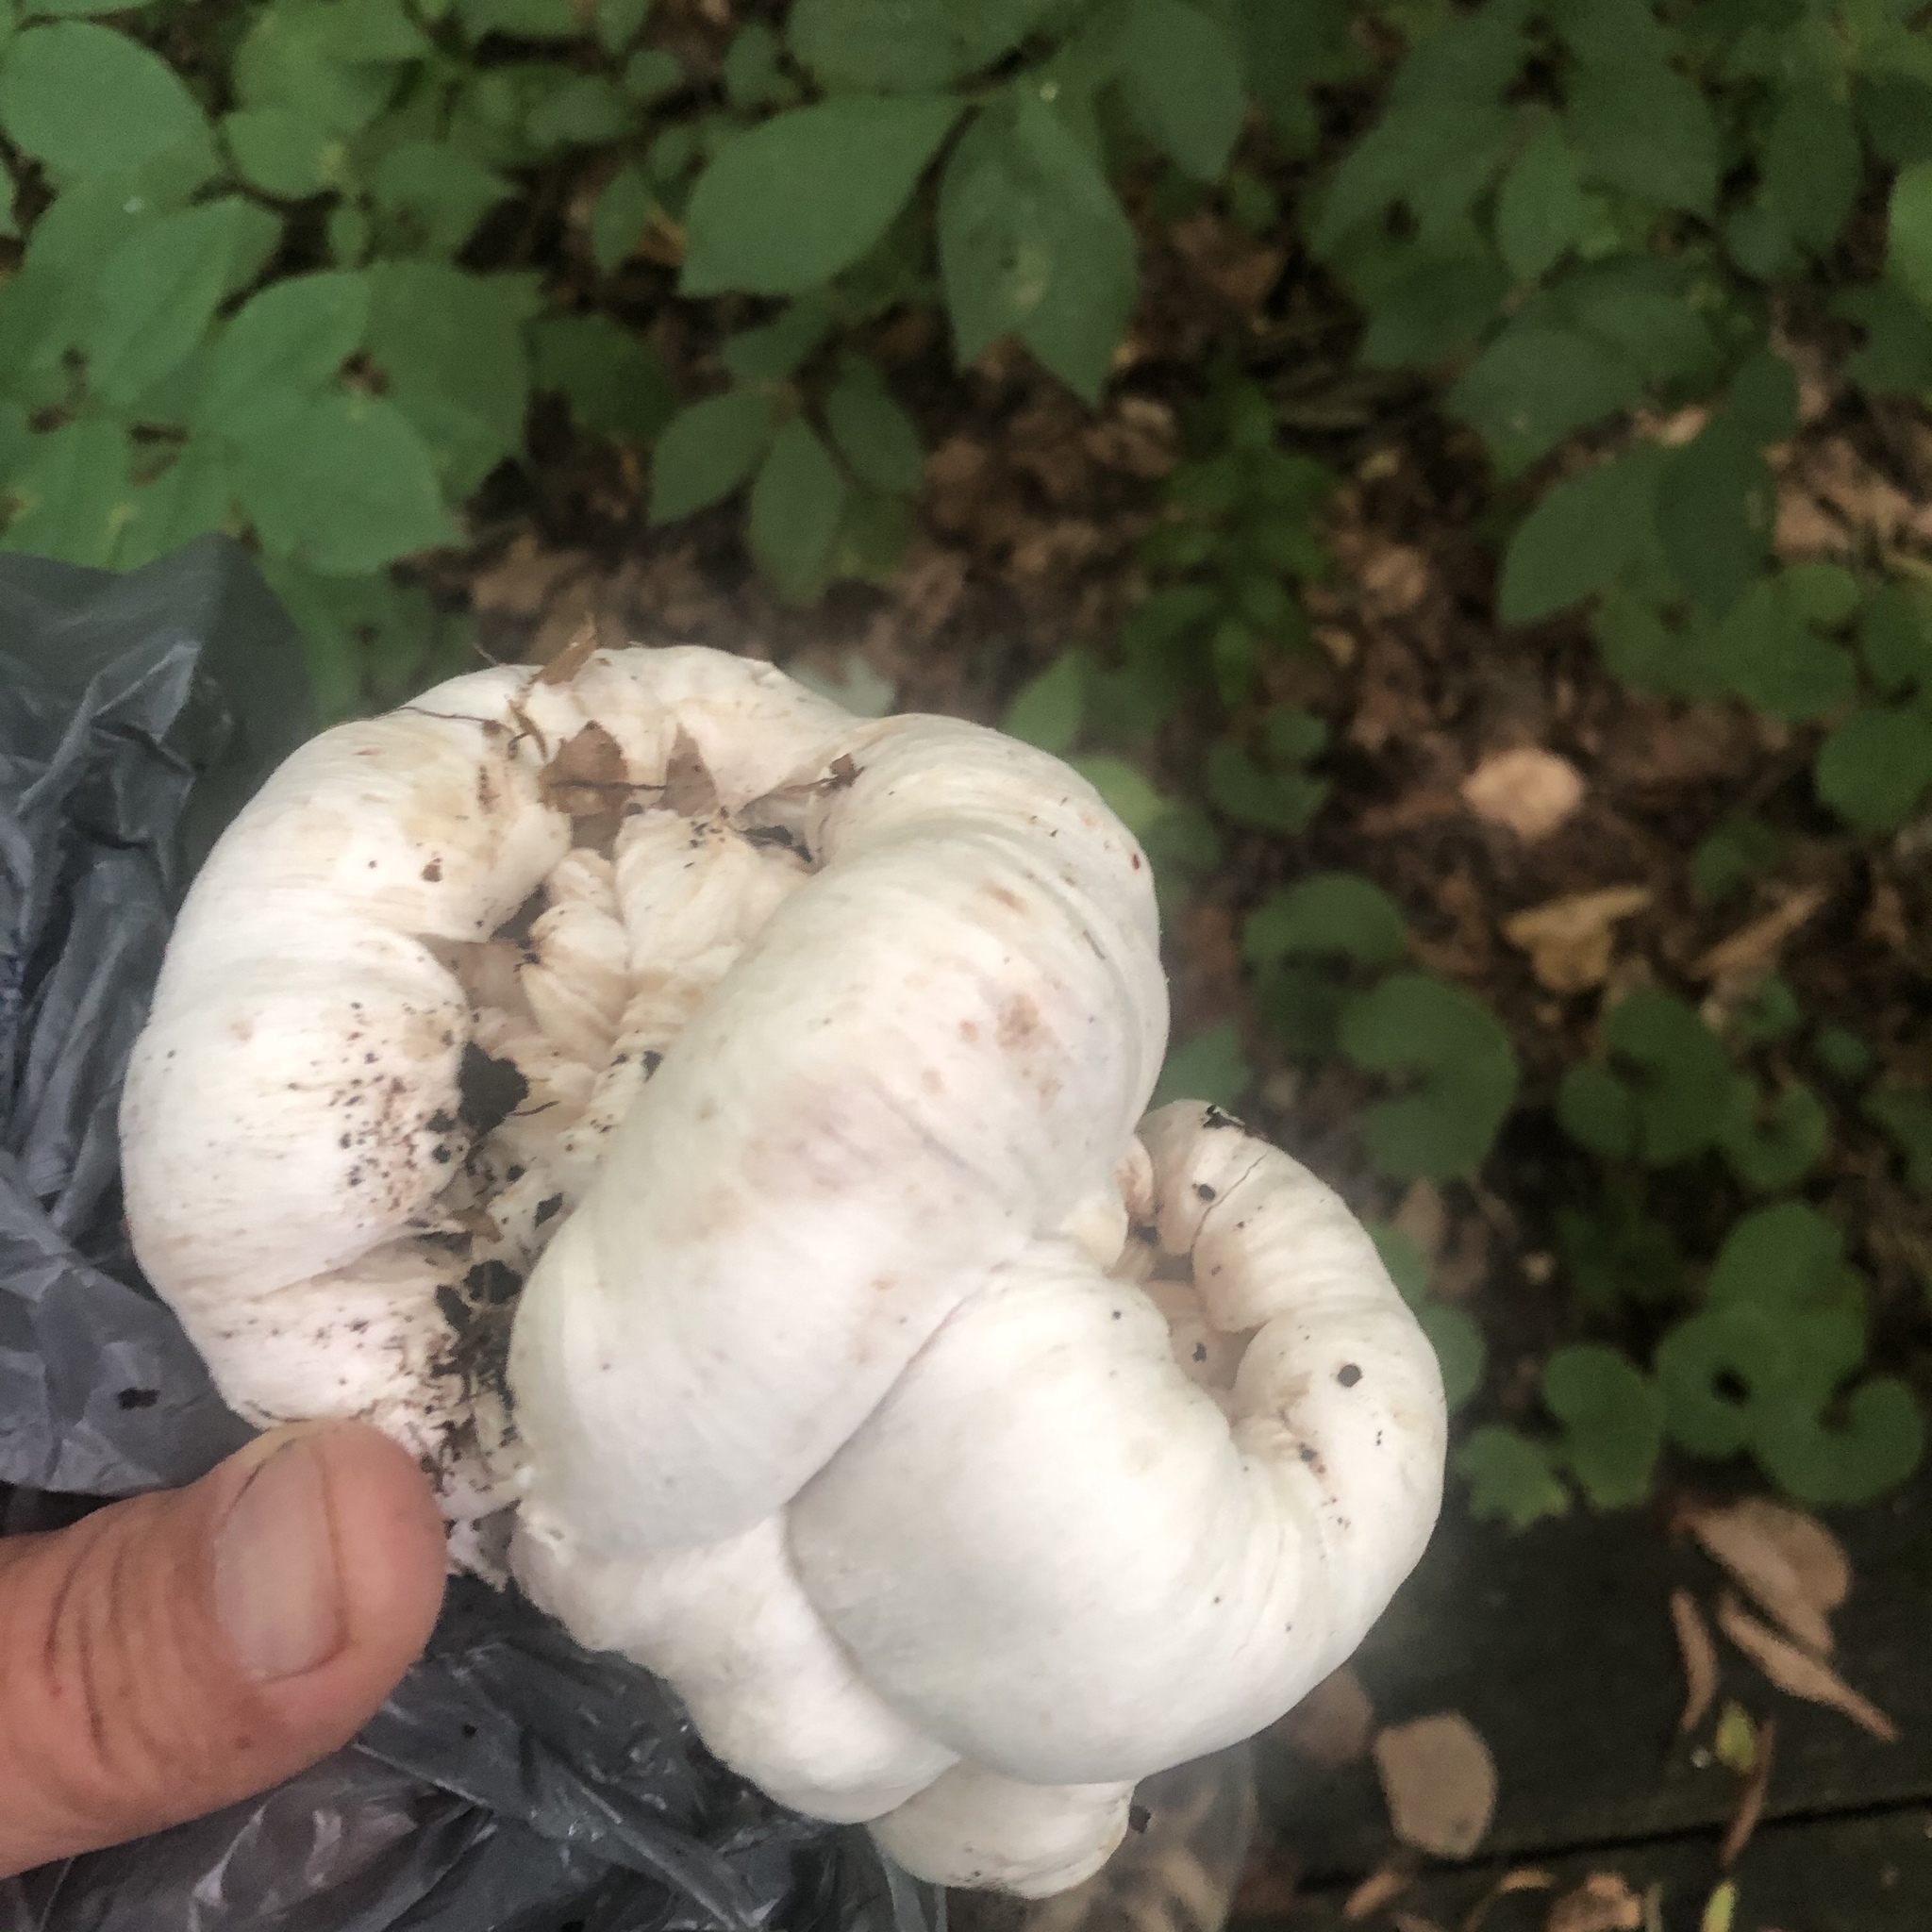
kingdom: Fungi
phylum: Basidiomycota
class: Agaricomycetes
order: Agaricales
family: Entolomataceae
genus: Entoloma
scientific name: Entoloma abortivum
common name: Aborted entoloma
